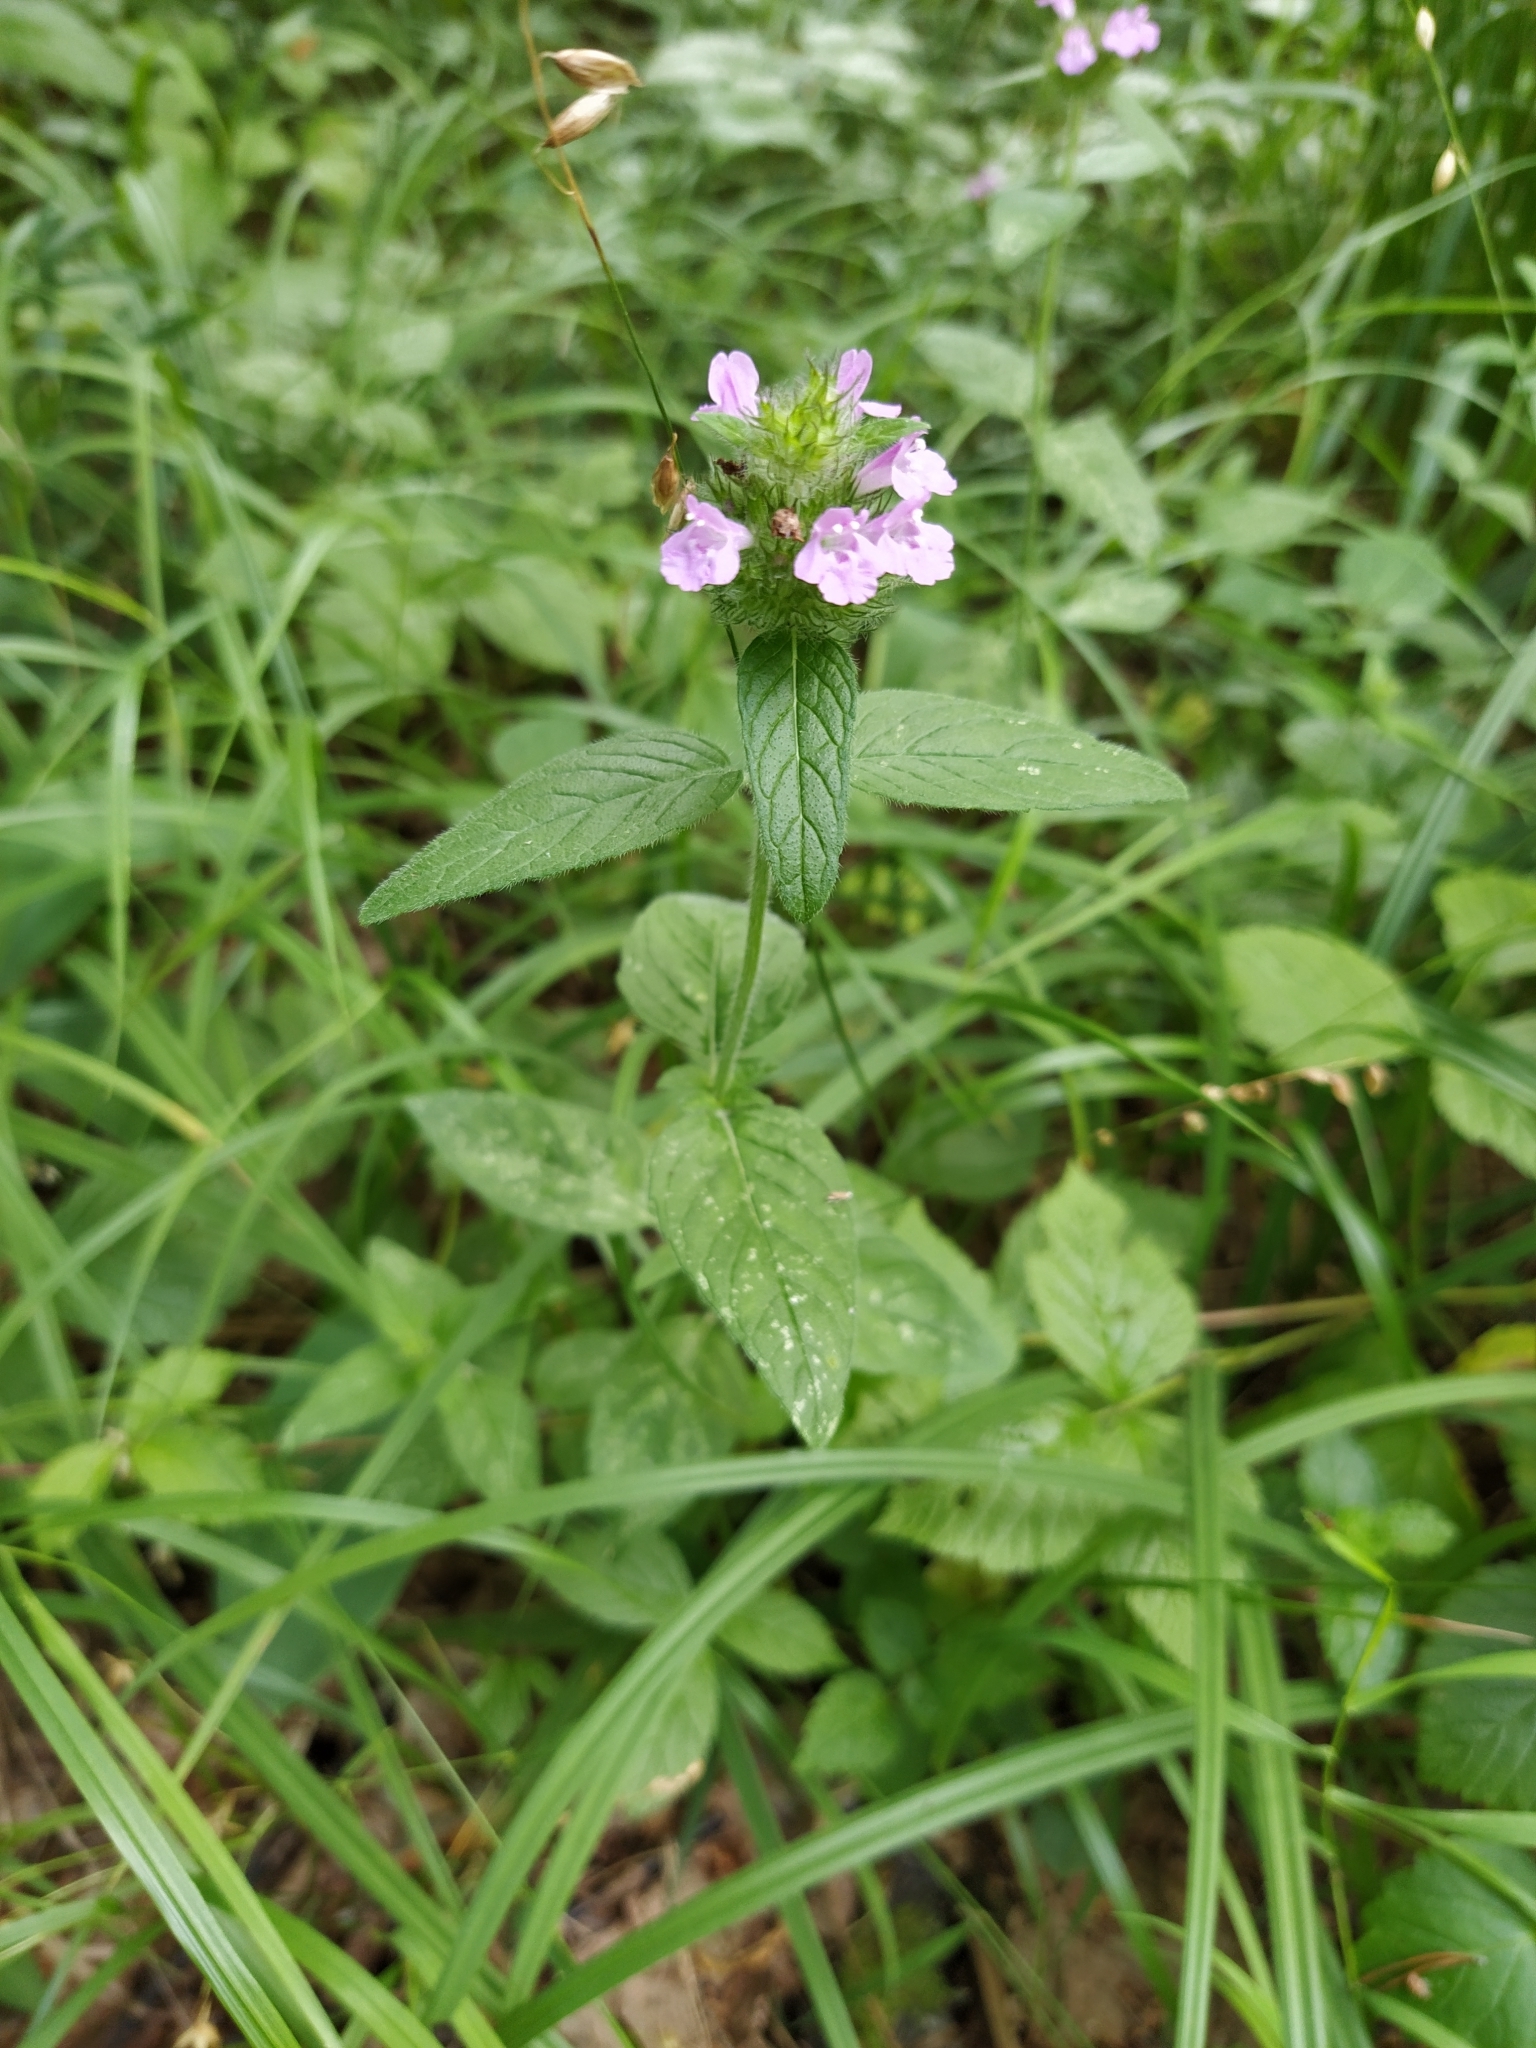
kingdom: Plantae
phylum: Tracheophyta
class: Magnoliopsida
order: Lamiales
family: Lamiaceae
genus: Clinopodium
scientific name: Clinopodium vulgare
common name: Wild basil
